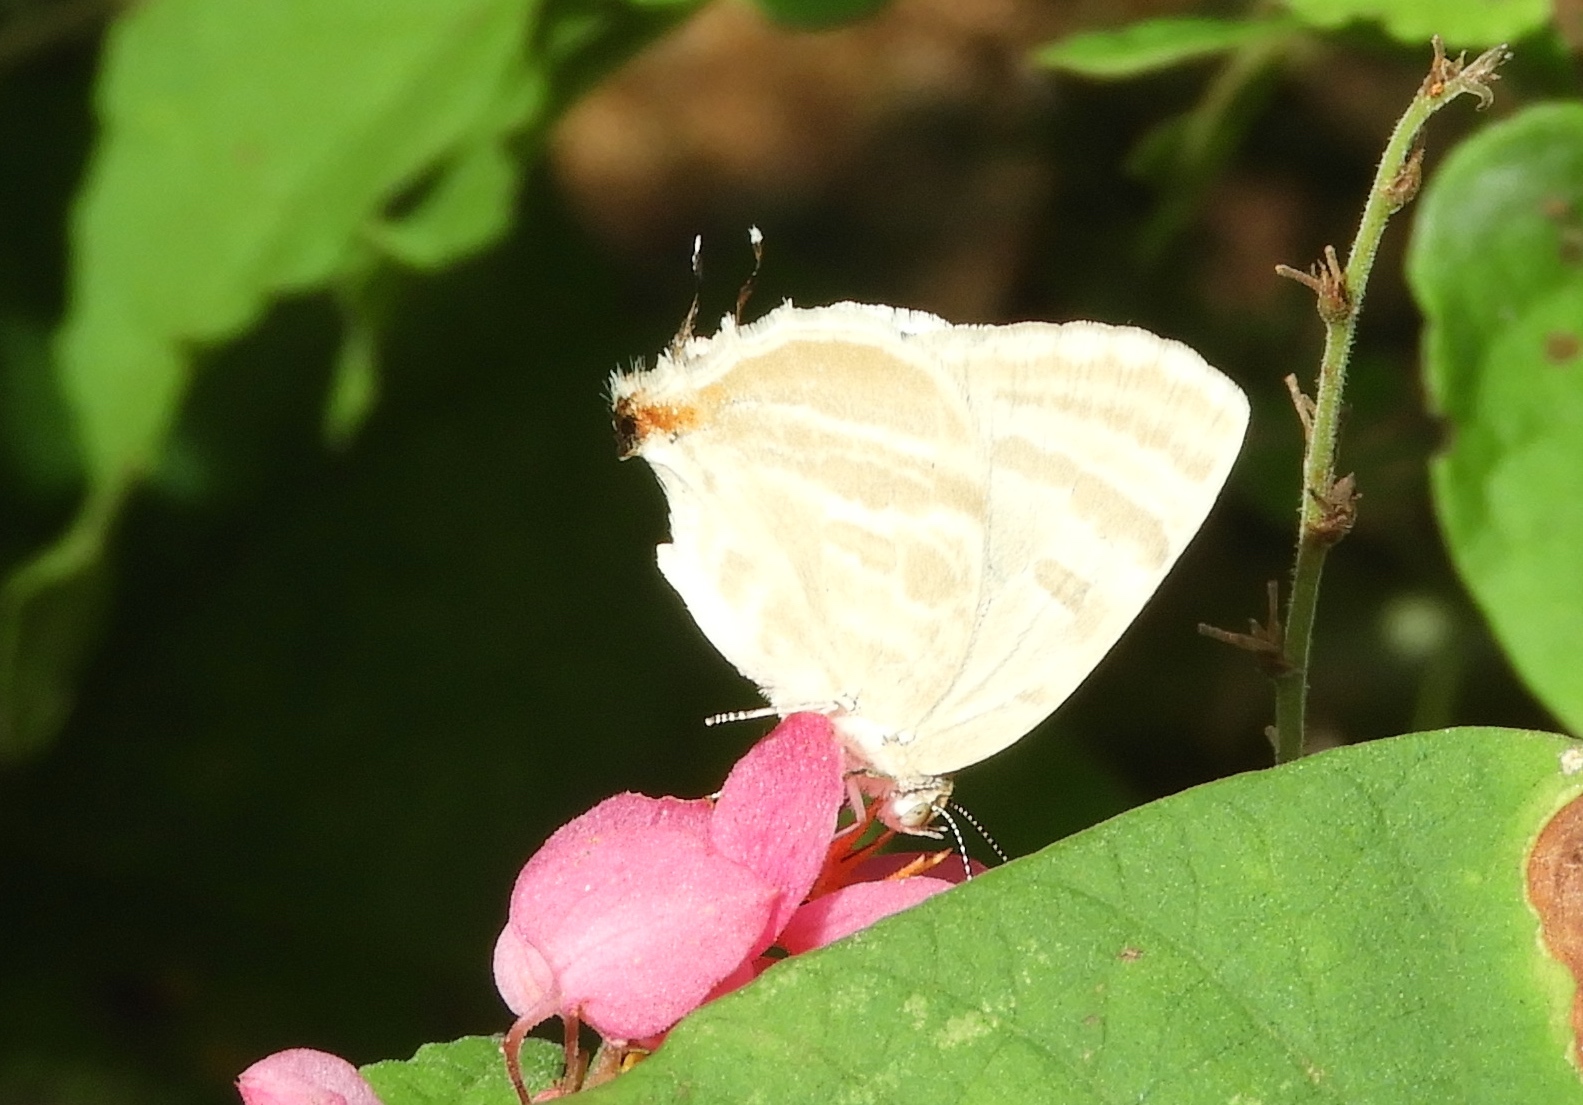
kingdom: Animalia
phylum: Arthropoda
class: Insecta
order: Lepidoptera
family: Lycaenidae
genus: Dolymorpha
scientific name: Dolymorpha jada
